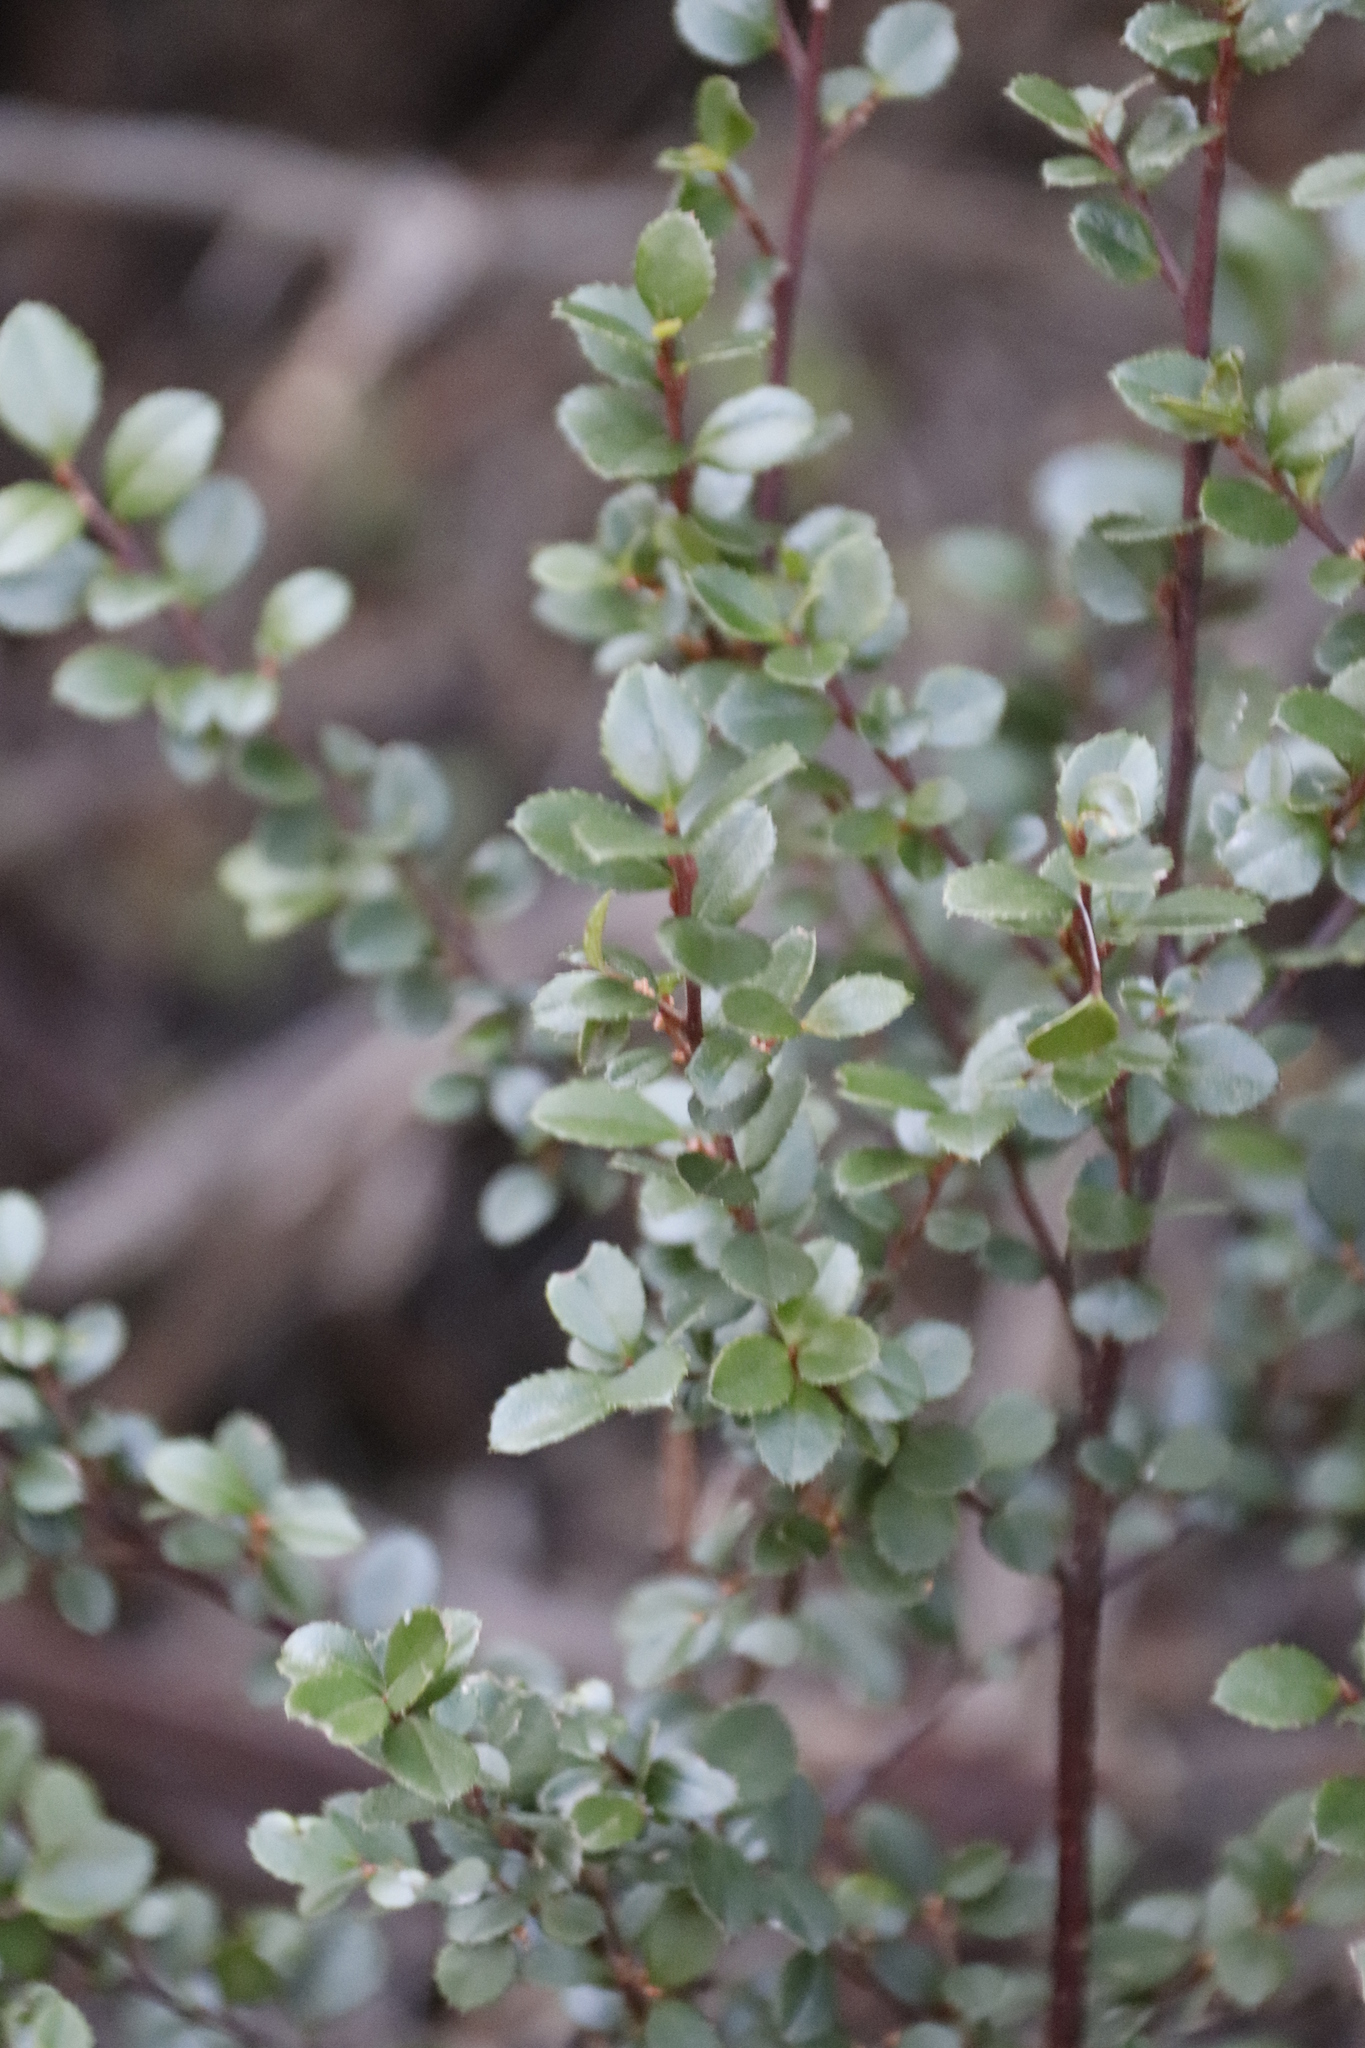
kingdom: Plantae
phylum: Tracheophyta
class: Magnoliopsida
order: Ericales
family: Primulaceae
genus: Myrsine
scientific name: Myrsine africana
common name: African-boxwood
